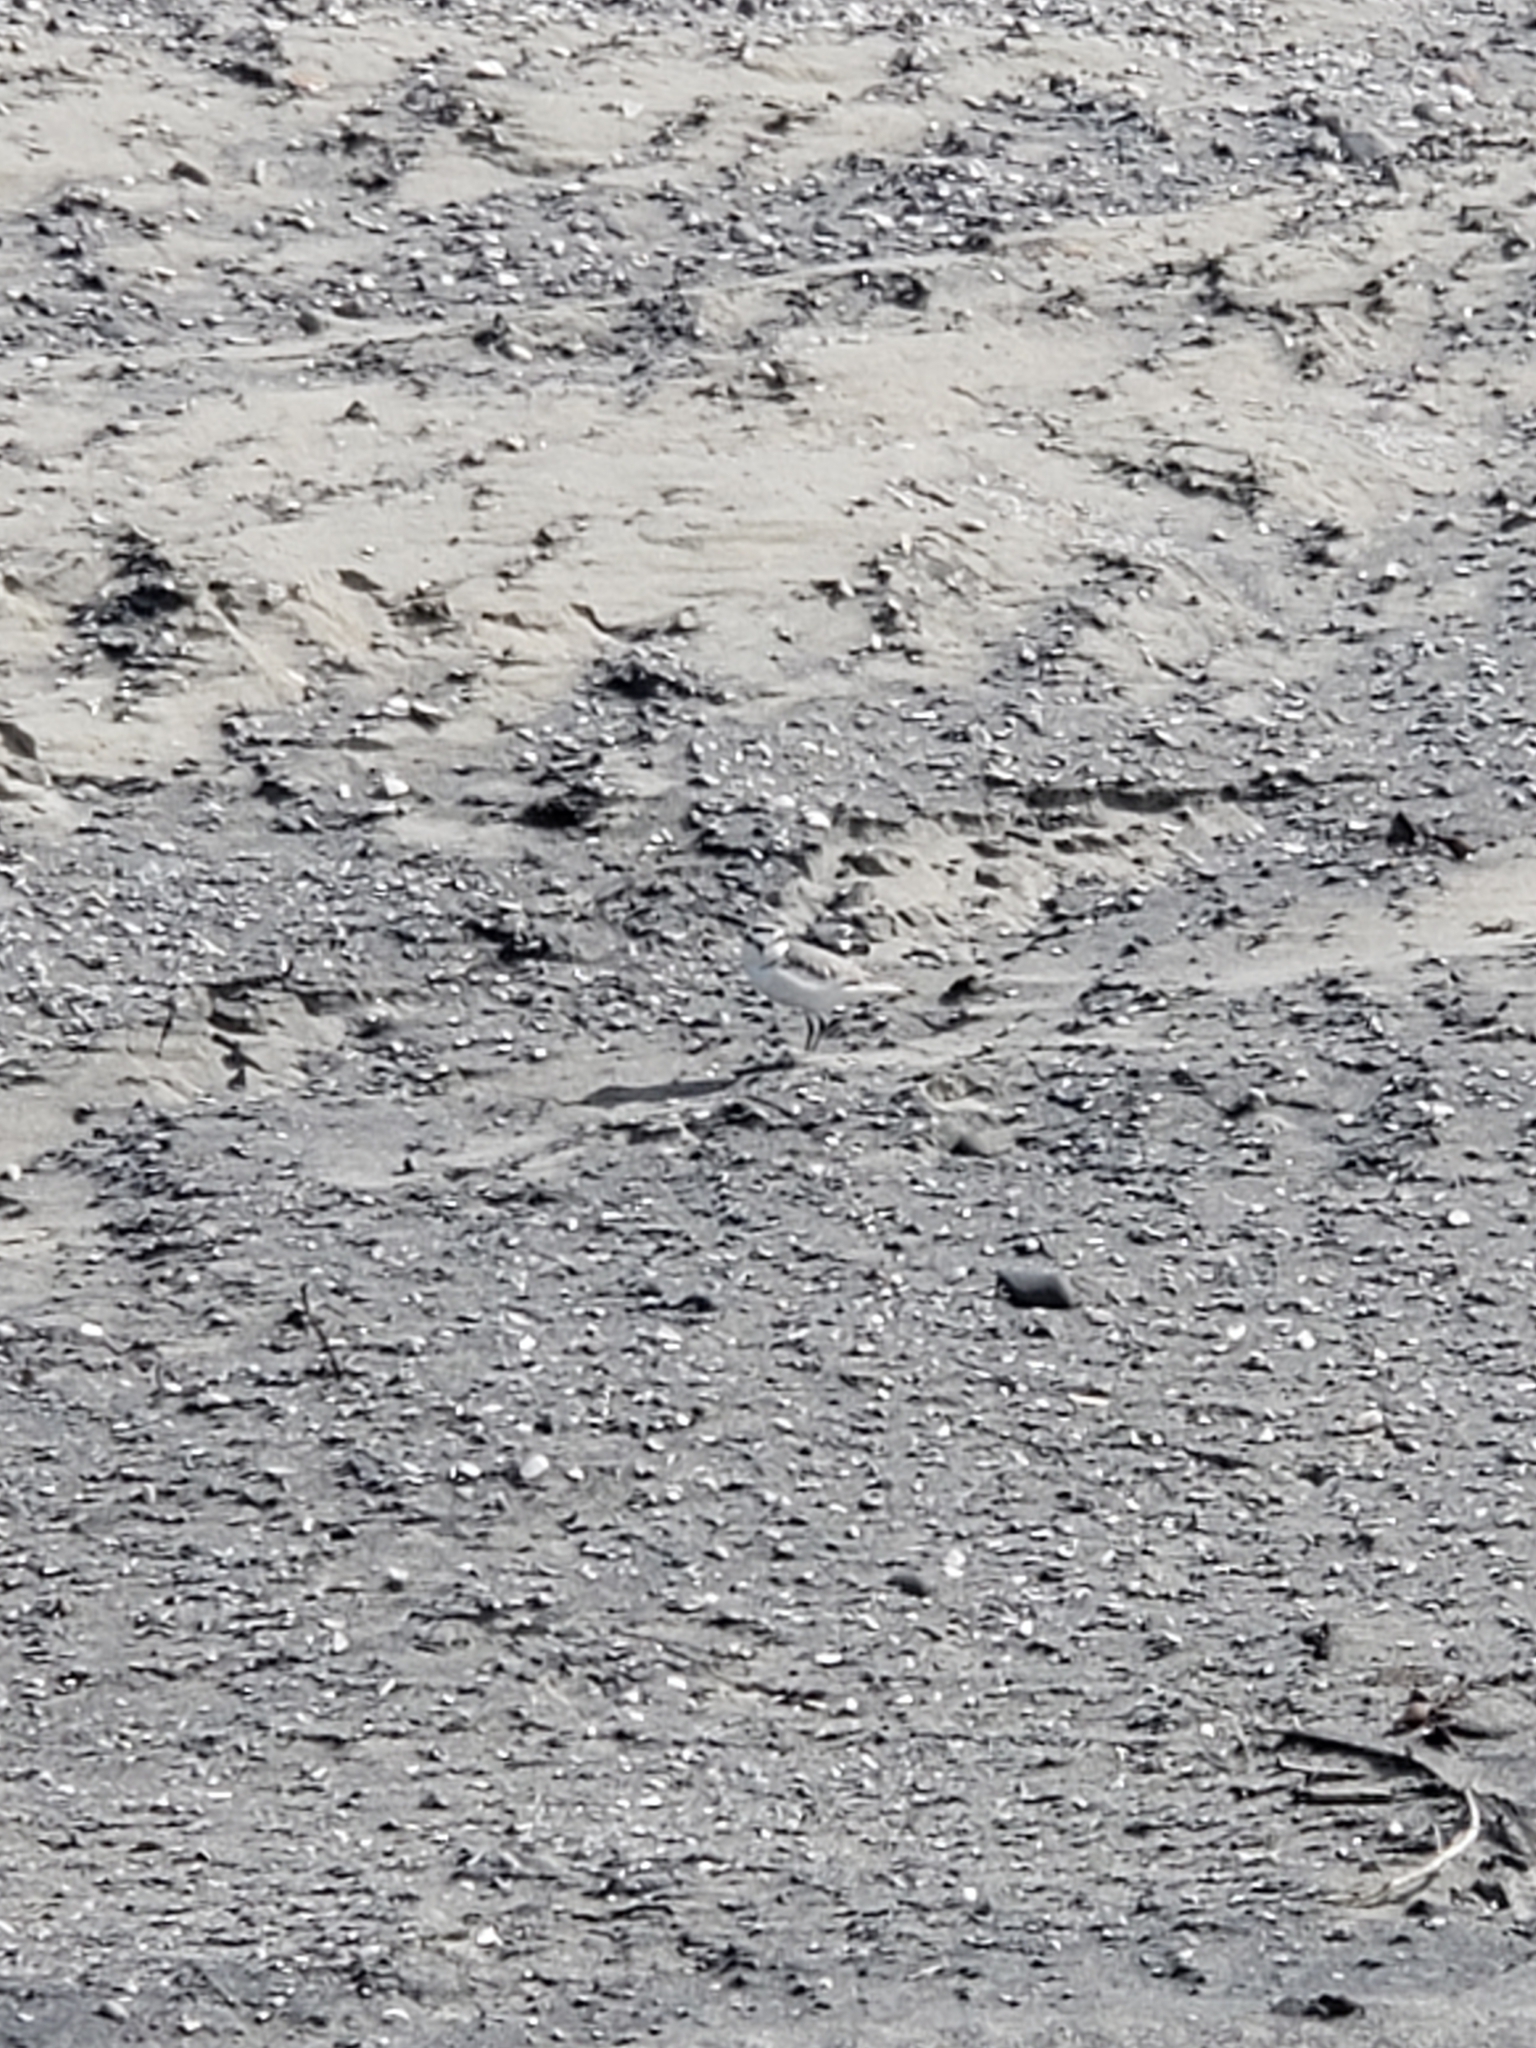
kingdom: Animalia
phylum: Chordata
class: Aves
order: Charadriiformes
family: Charadriidae
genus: Anarhynchus
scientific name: Anarhynchus
